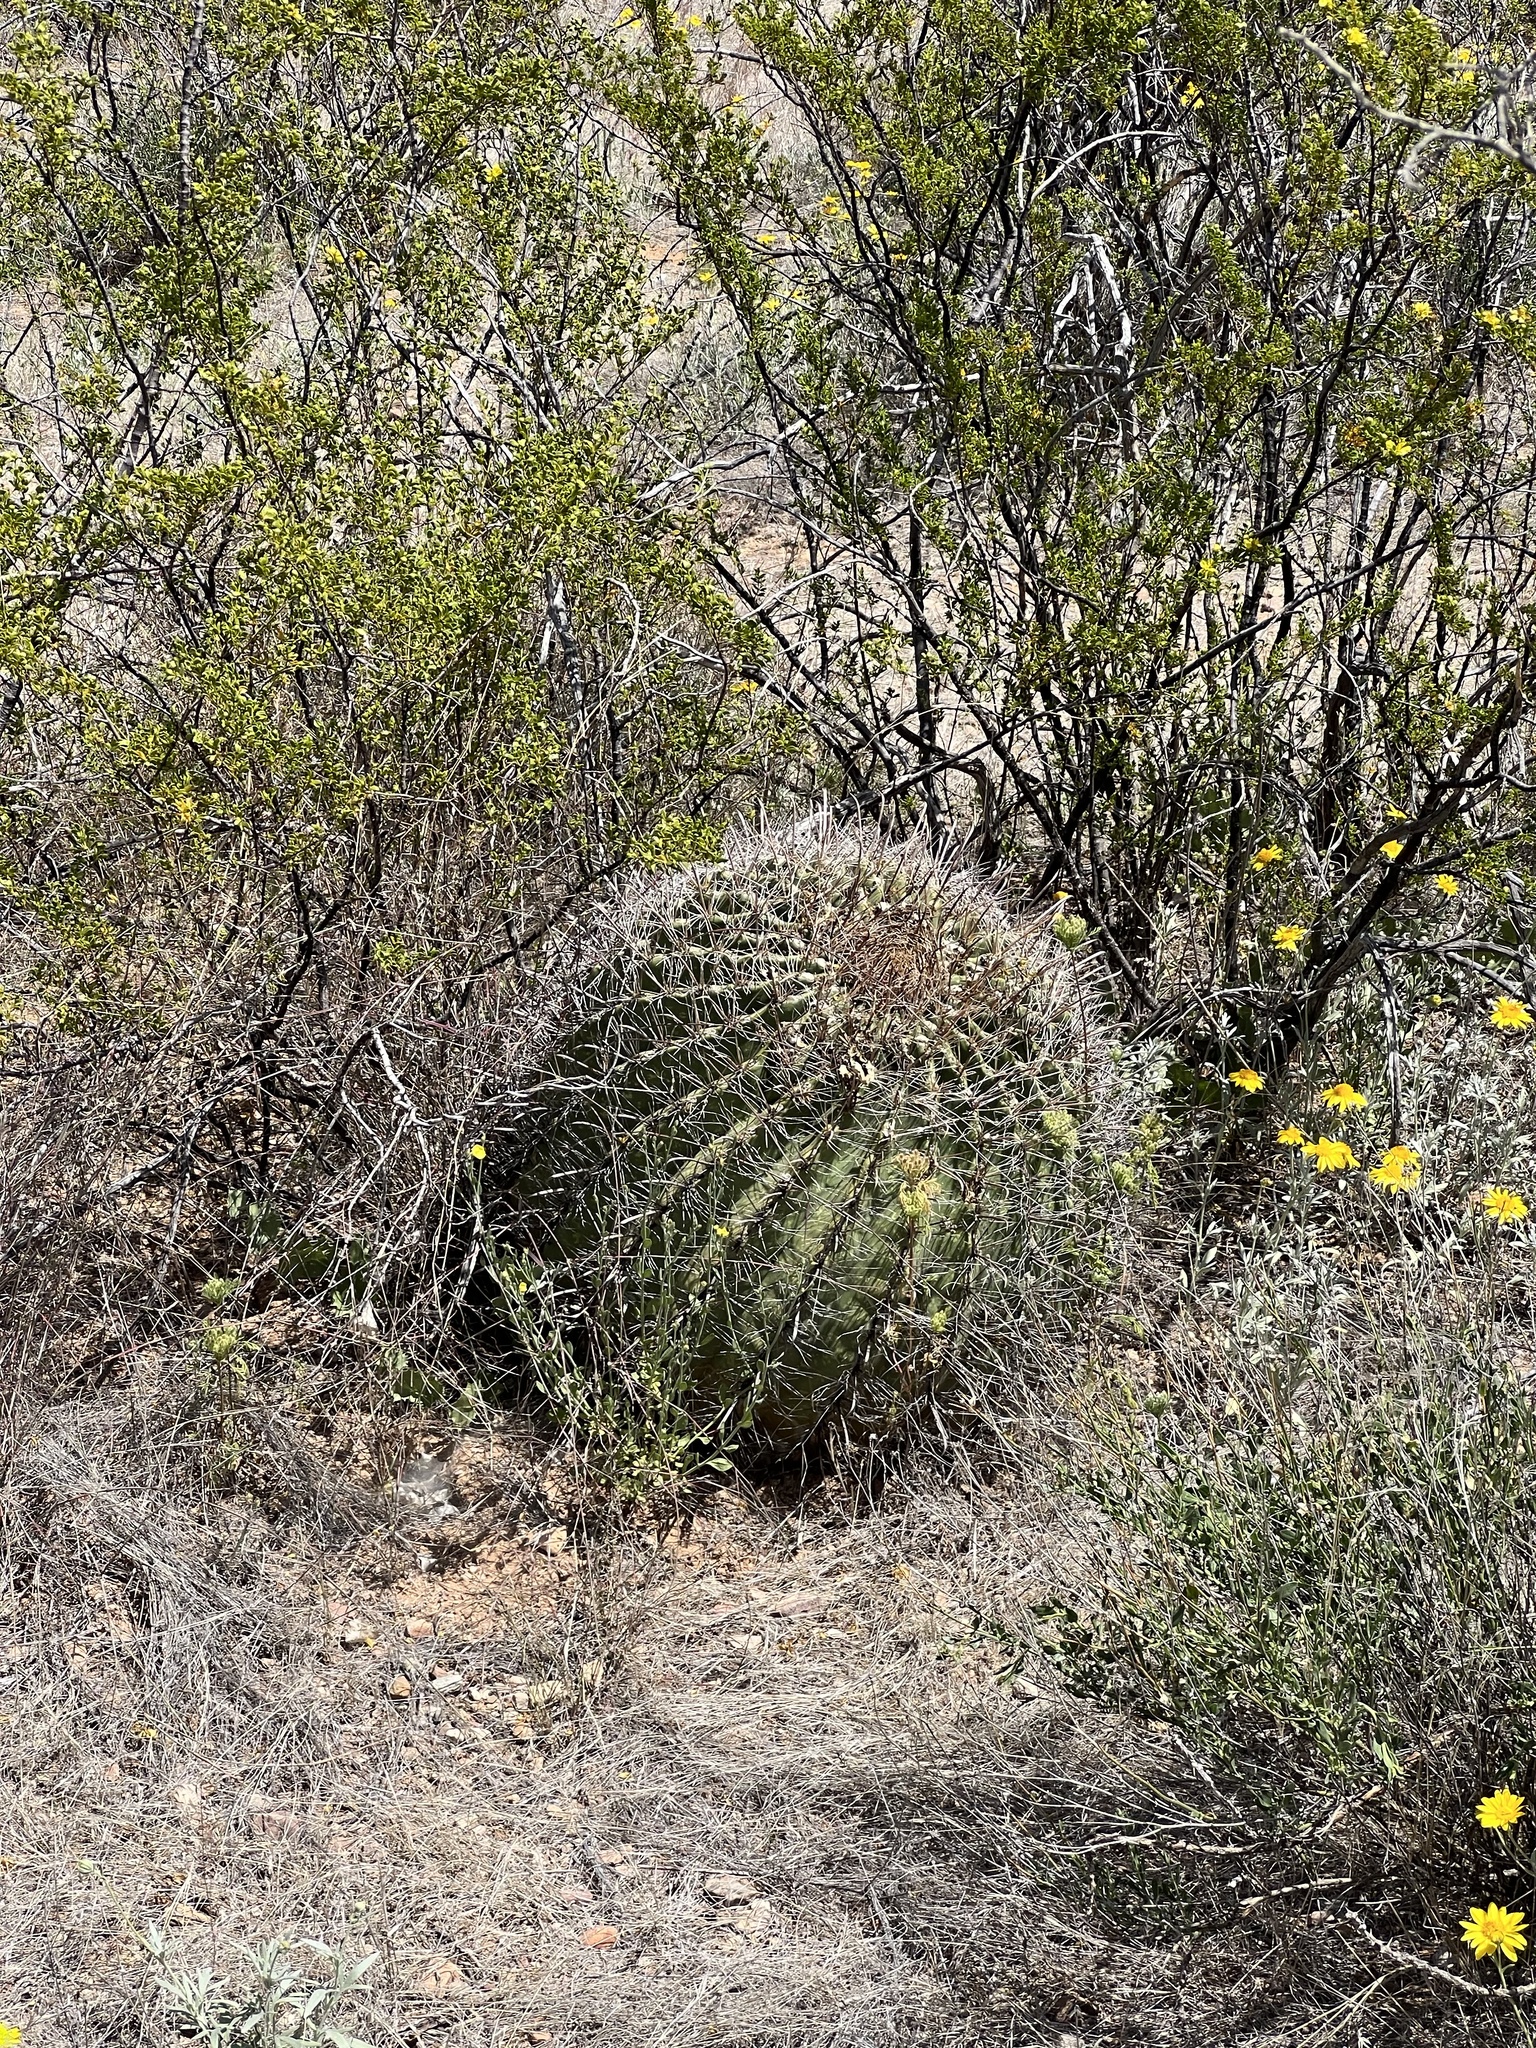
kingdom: Plantae
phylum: Tracheophyta
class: Magnoliopsida
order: Caryophyllales
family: Cactaceae
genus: Ferocactus
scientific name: Ferocactus wislizeni
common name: Candy barrel cactus
